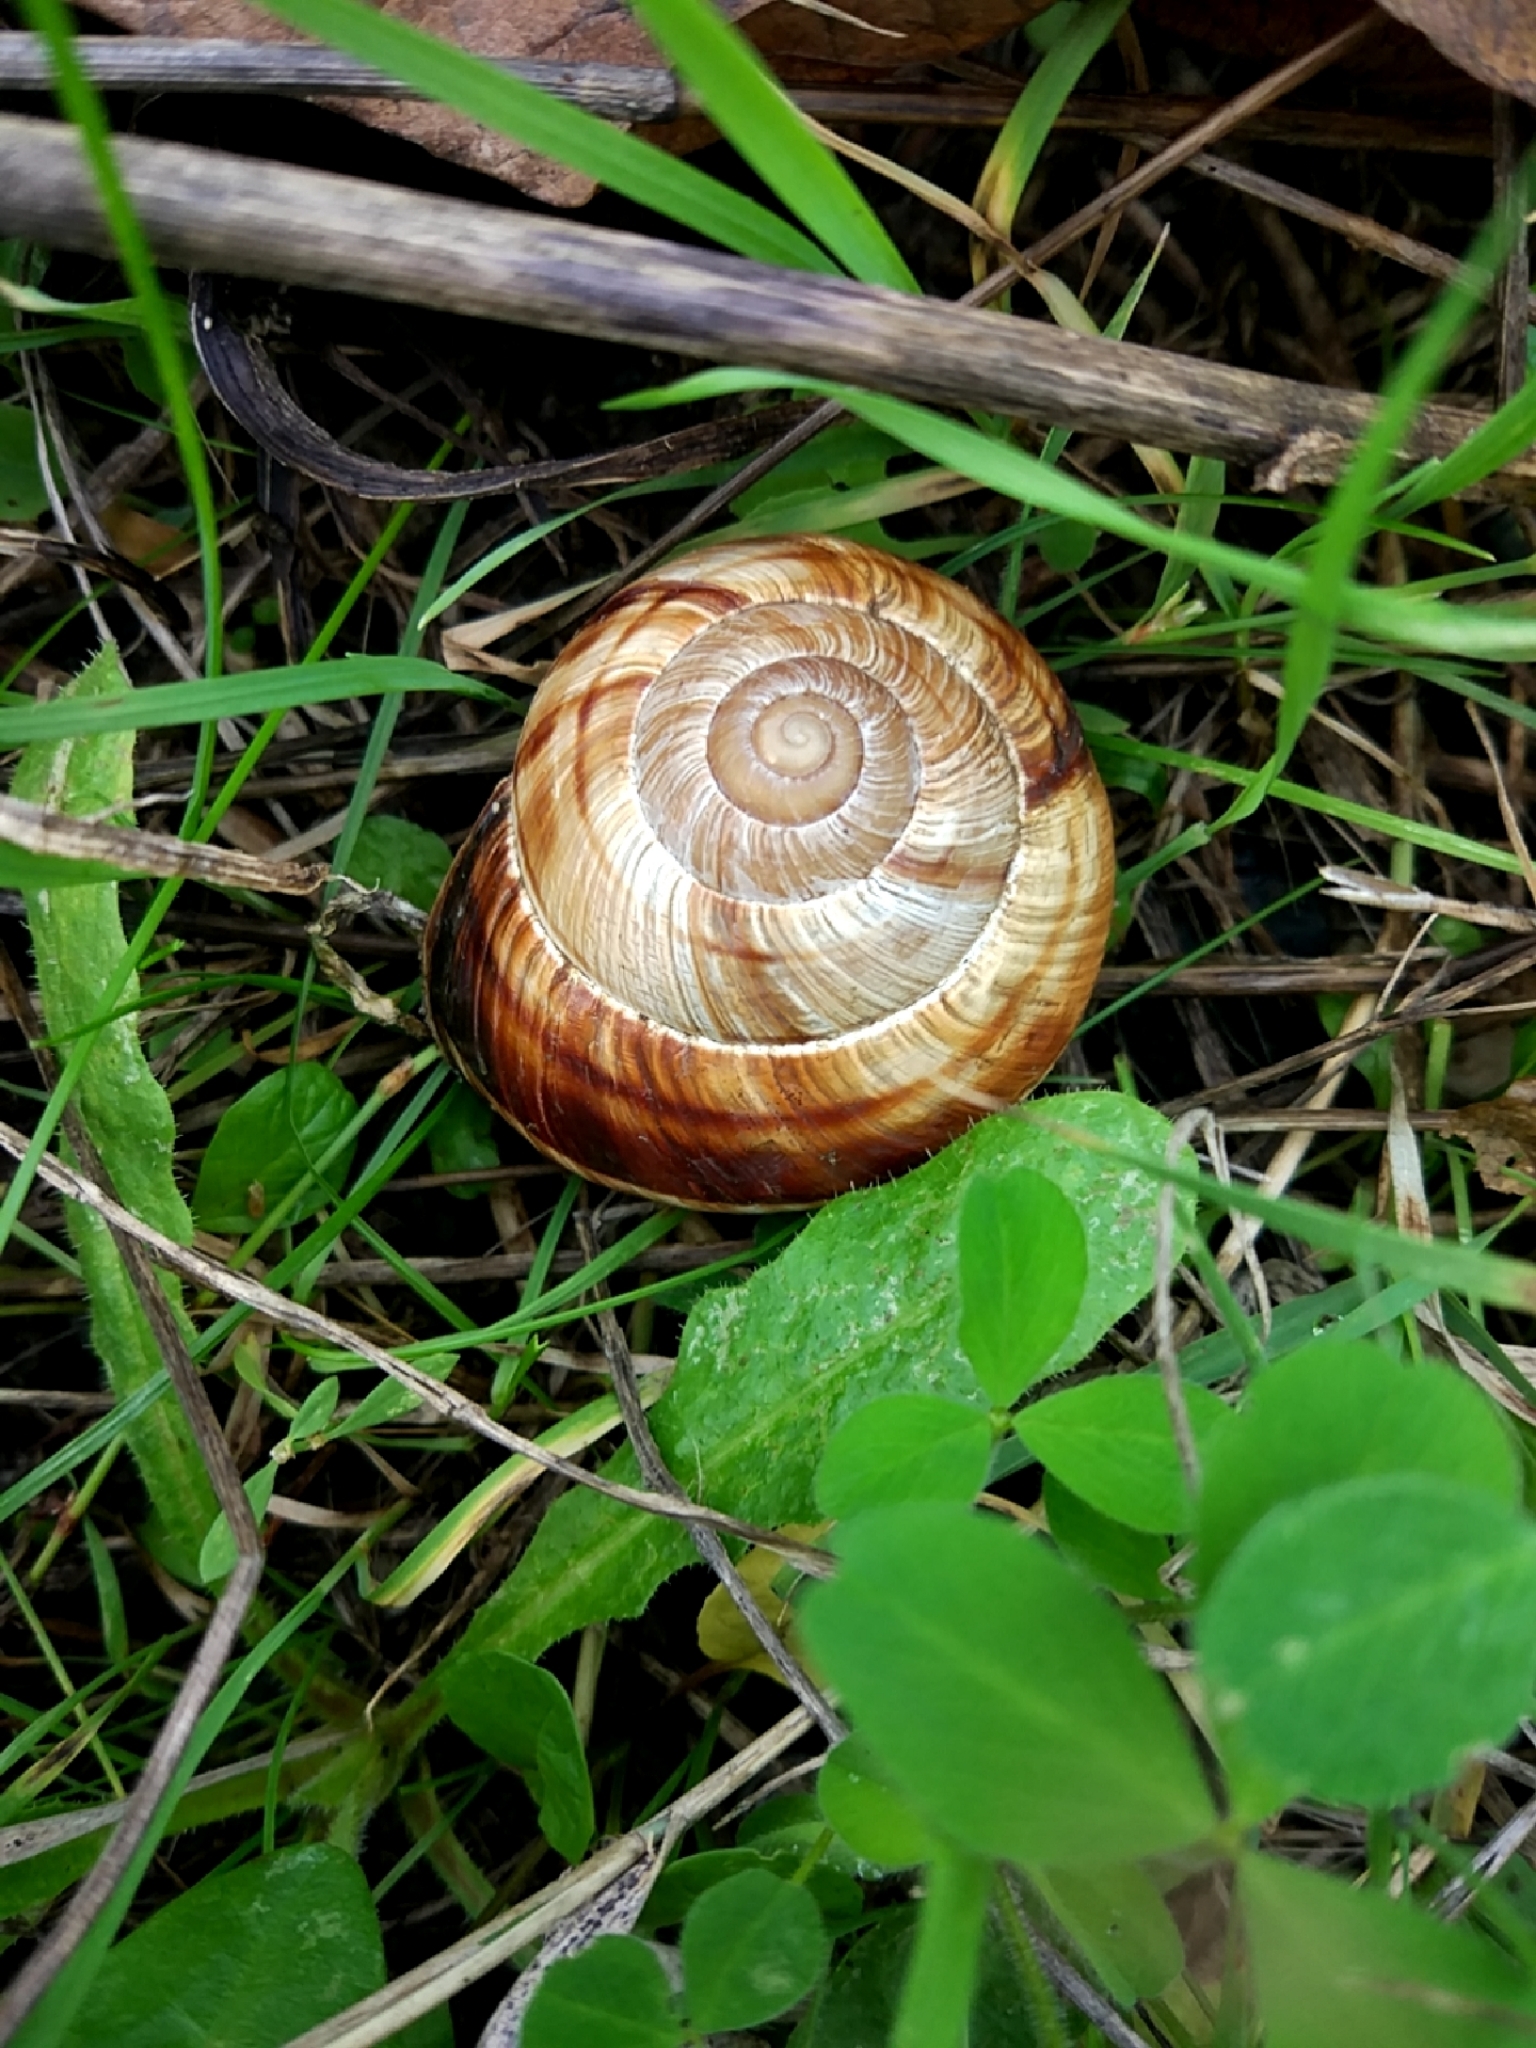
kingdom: Animalia
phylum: Mollusca
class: Gastropoda
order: Stylommatophora
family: Helicidae
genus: Helix
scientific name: Helix lucorum
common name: Turkish snail
